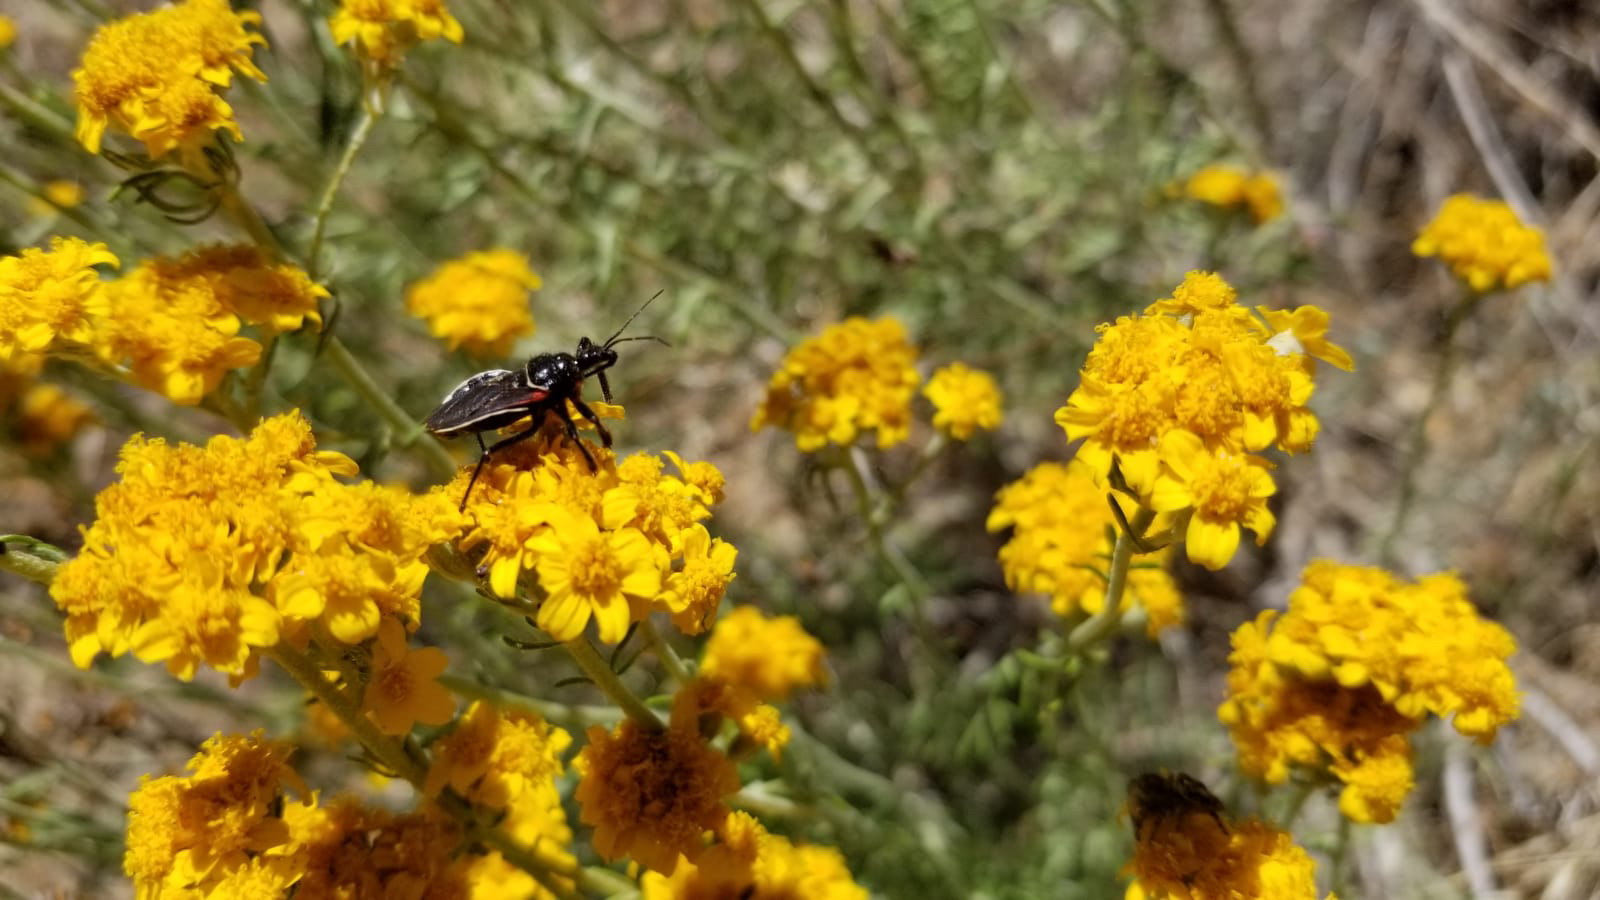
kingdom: Animalia
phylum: Arthropoda
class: Insecta
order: Hemiptera
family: Reduviidae
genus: Apiomerus
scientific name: Apiomerus californicus
